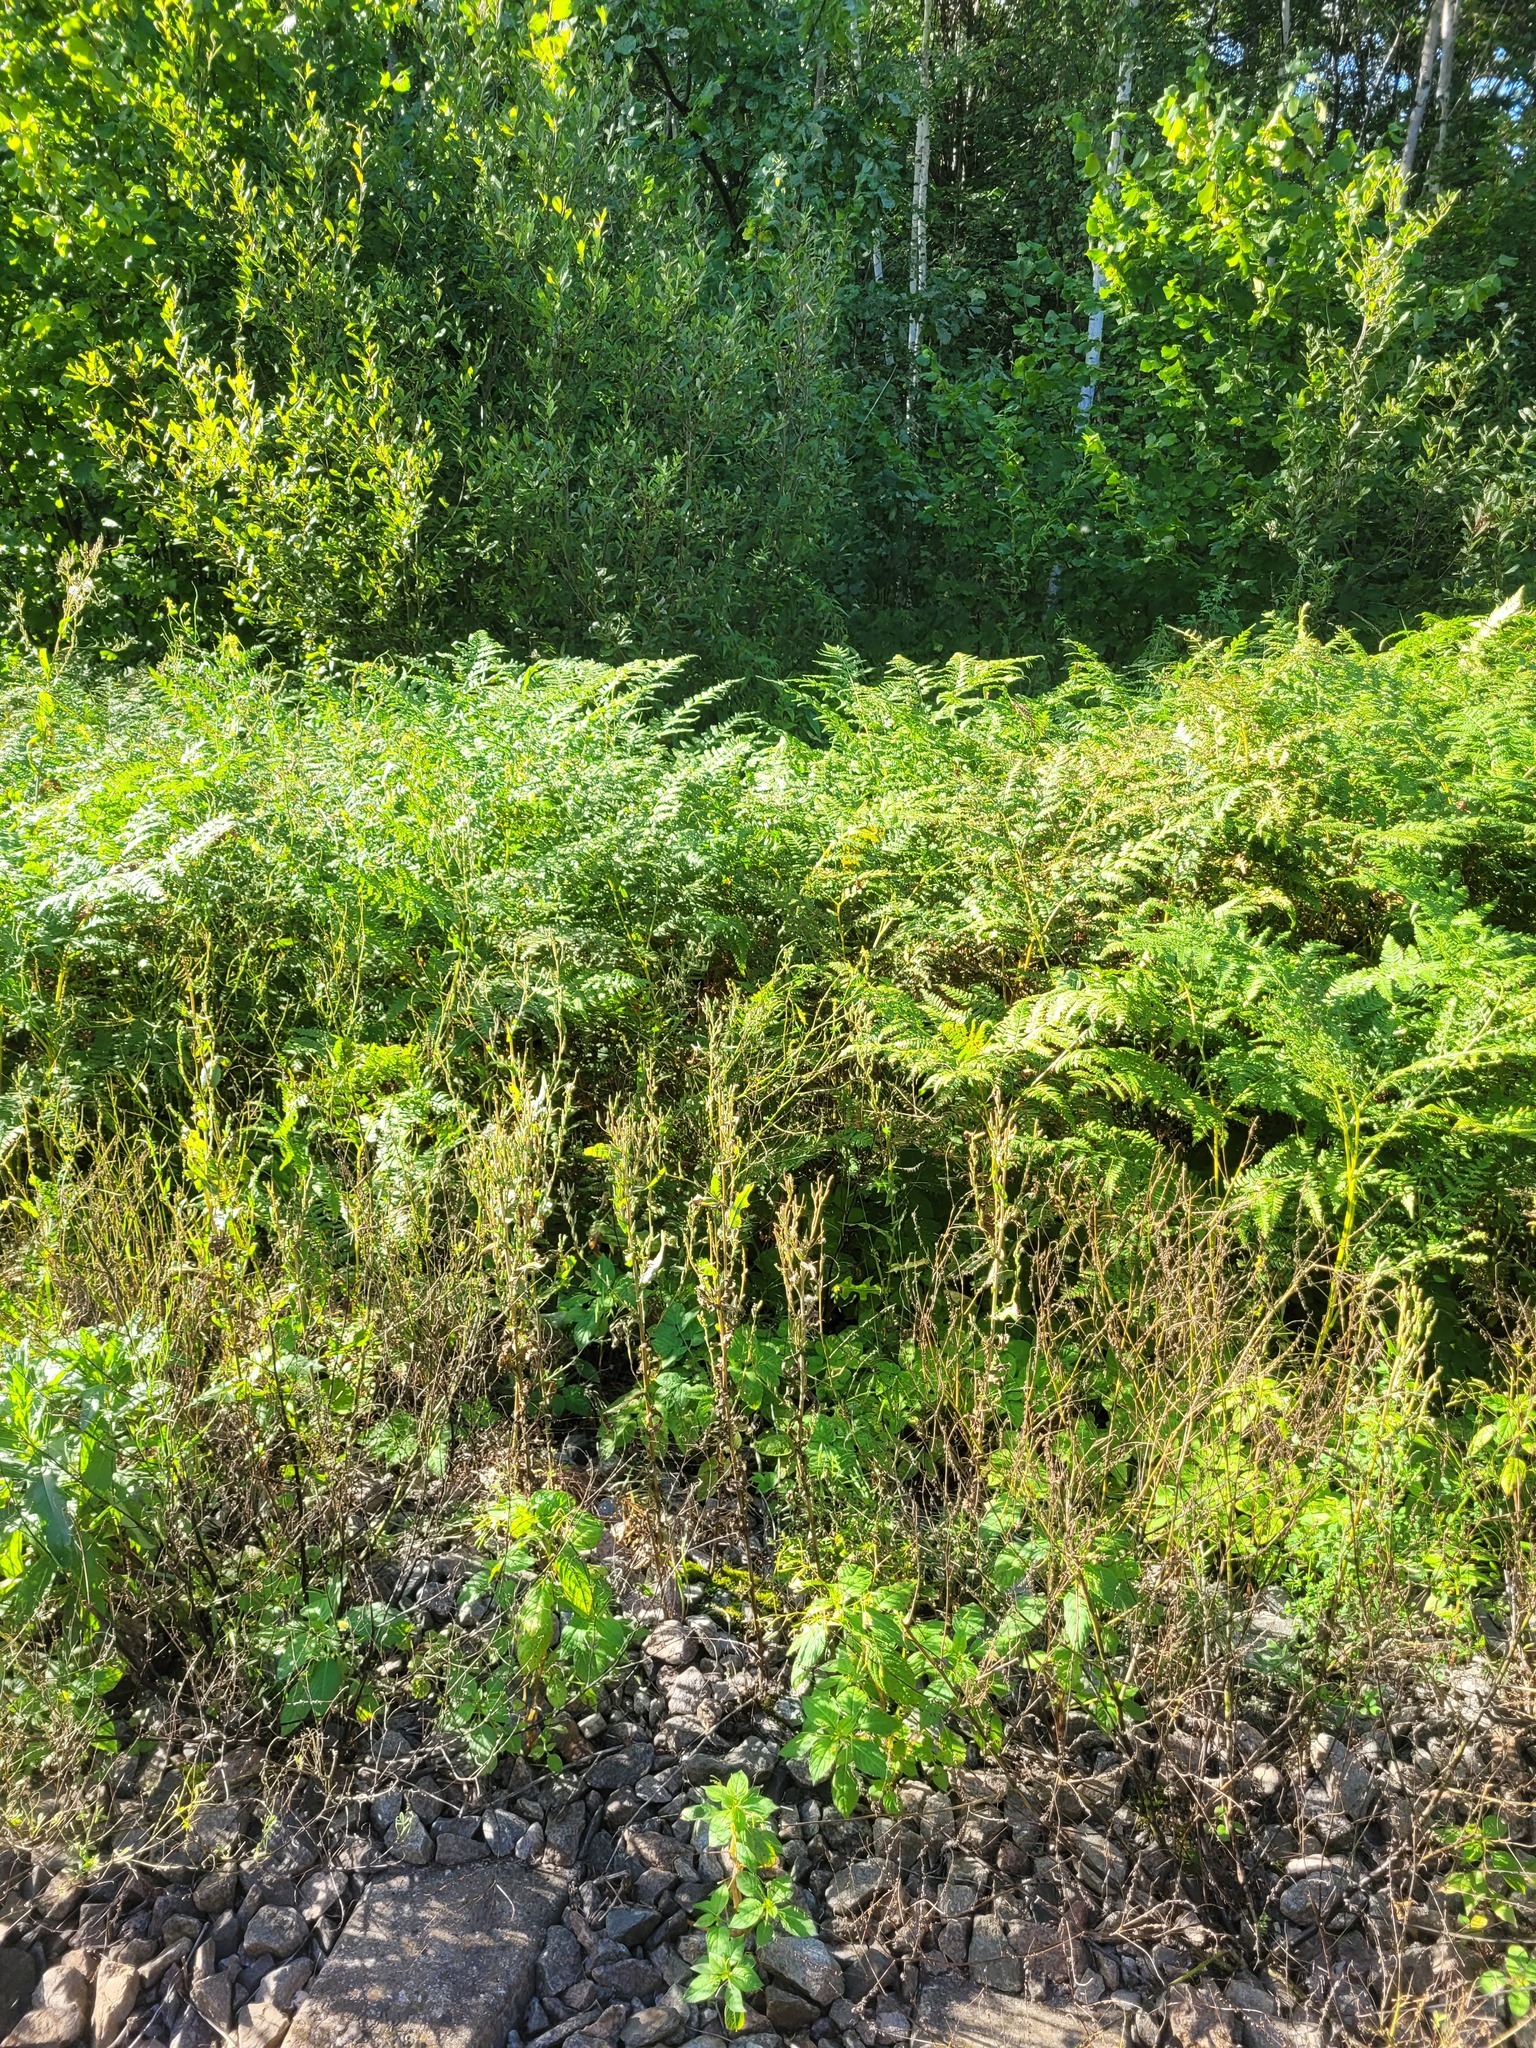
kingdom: Plantae
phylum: Tracheophyta
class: Magnoliopsida
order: Asterales
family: Asteraceae
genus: Lactuca
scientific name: Lactuca serriola
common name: Prickly lettuce
